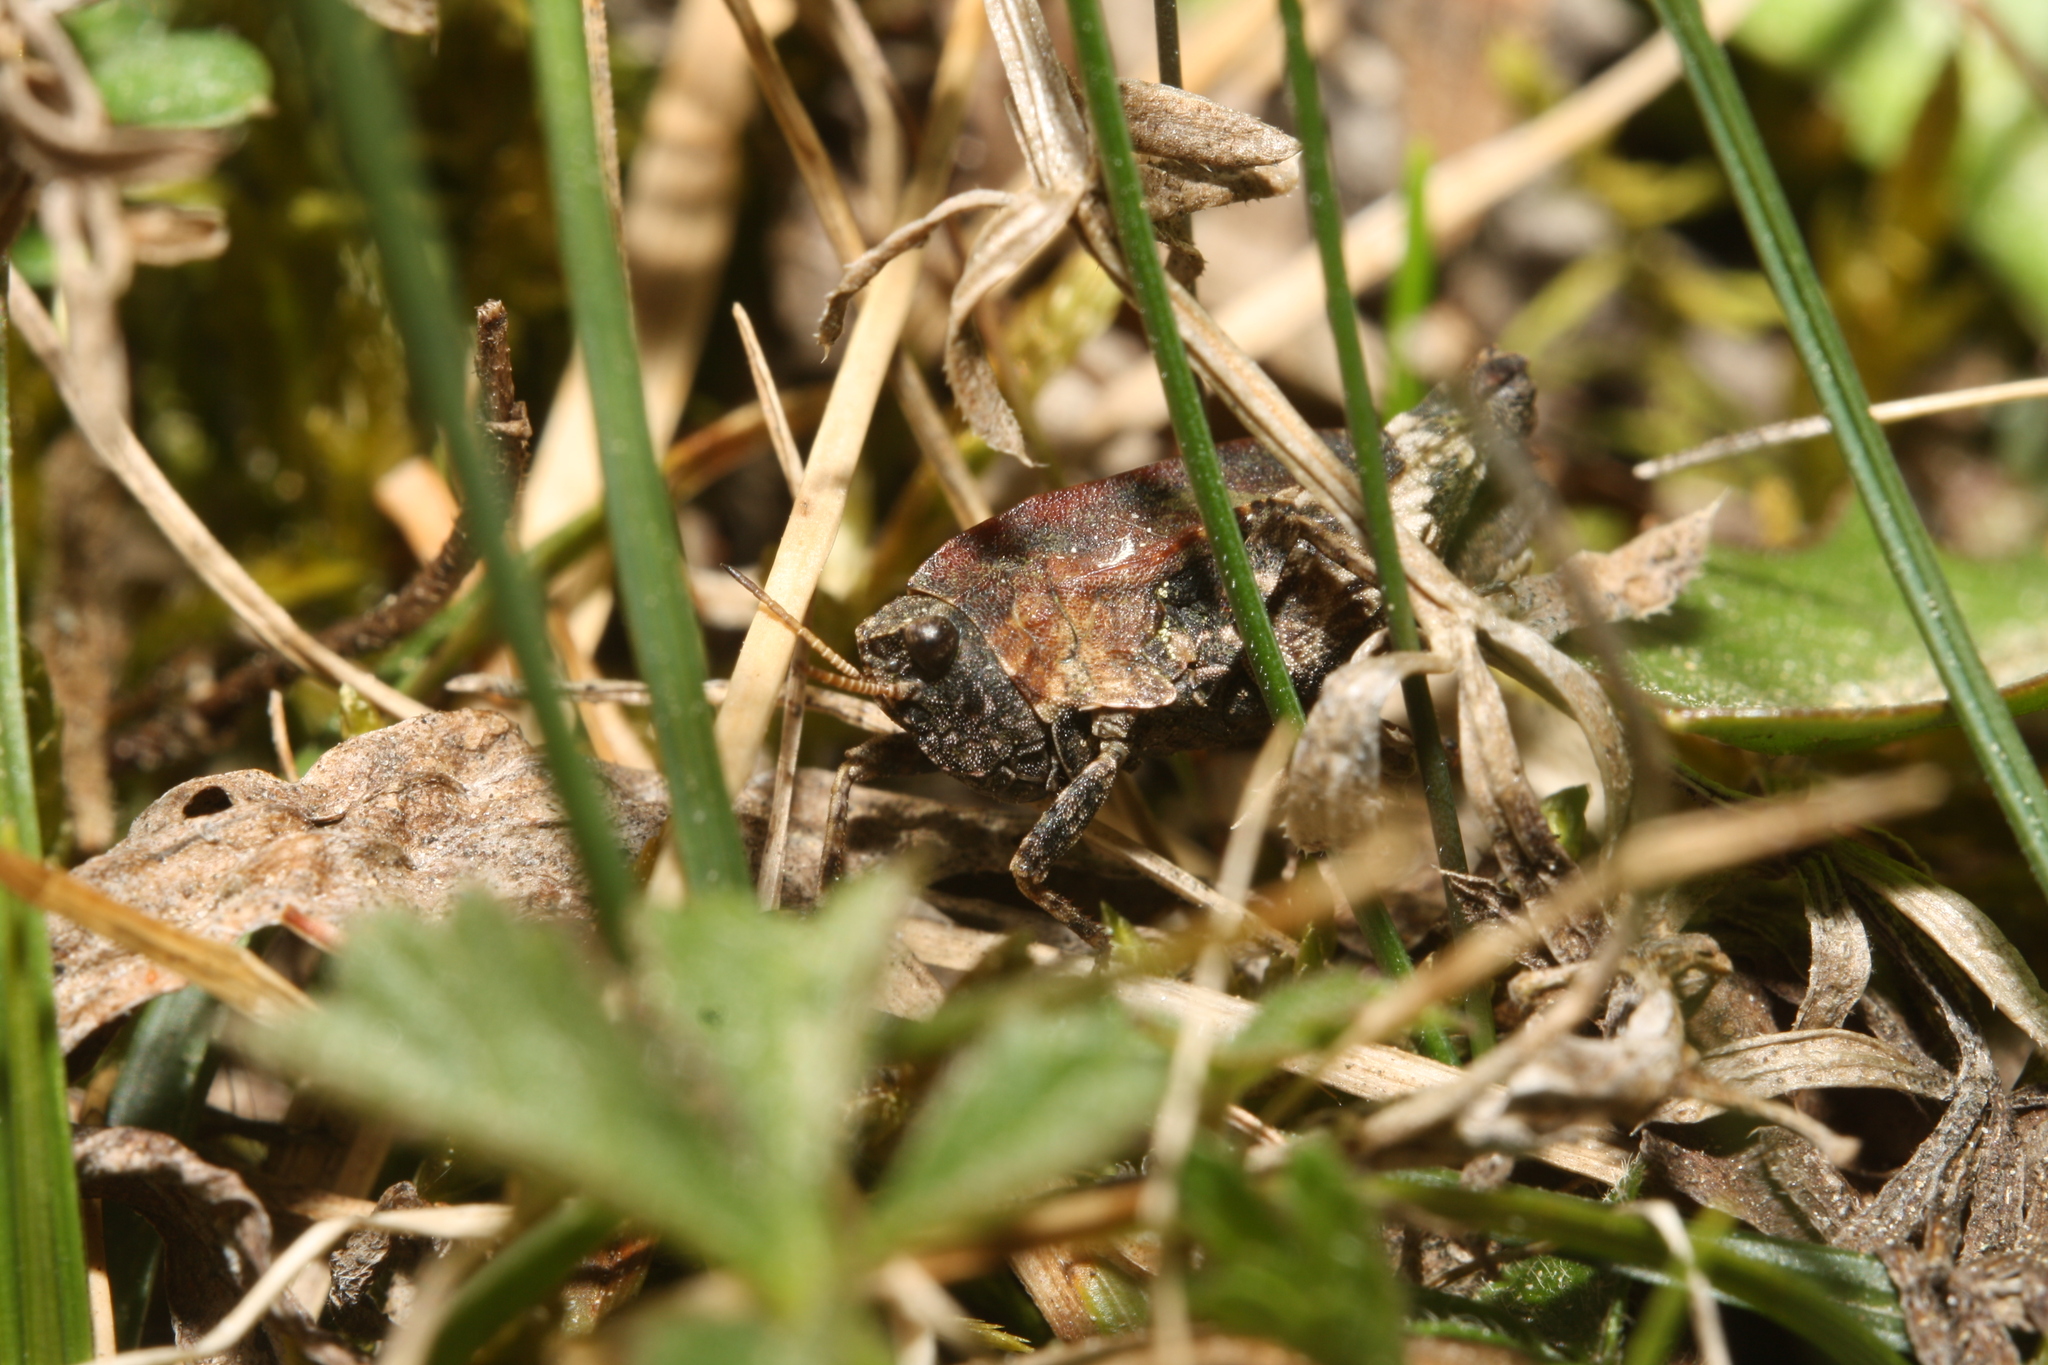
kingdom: Animalia
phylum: Arthropoda
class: Insecta
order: Orthoptera
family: Tetrigidae
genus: Tetrix
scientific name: Tetrix bipunctata
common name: Two-spotted groundhopper
